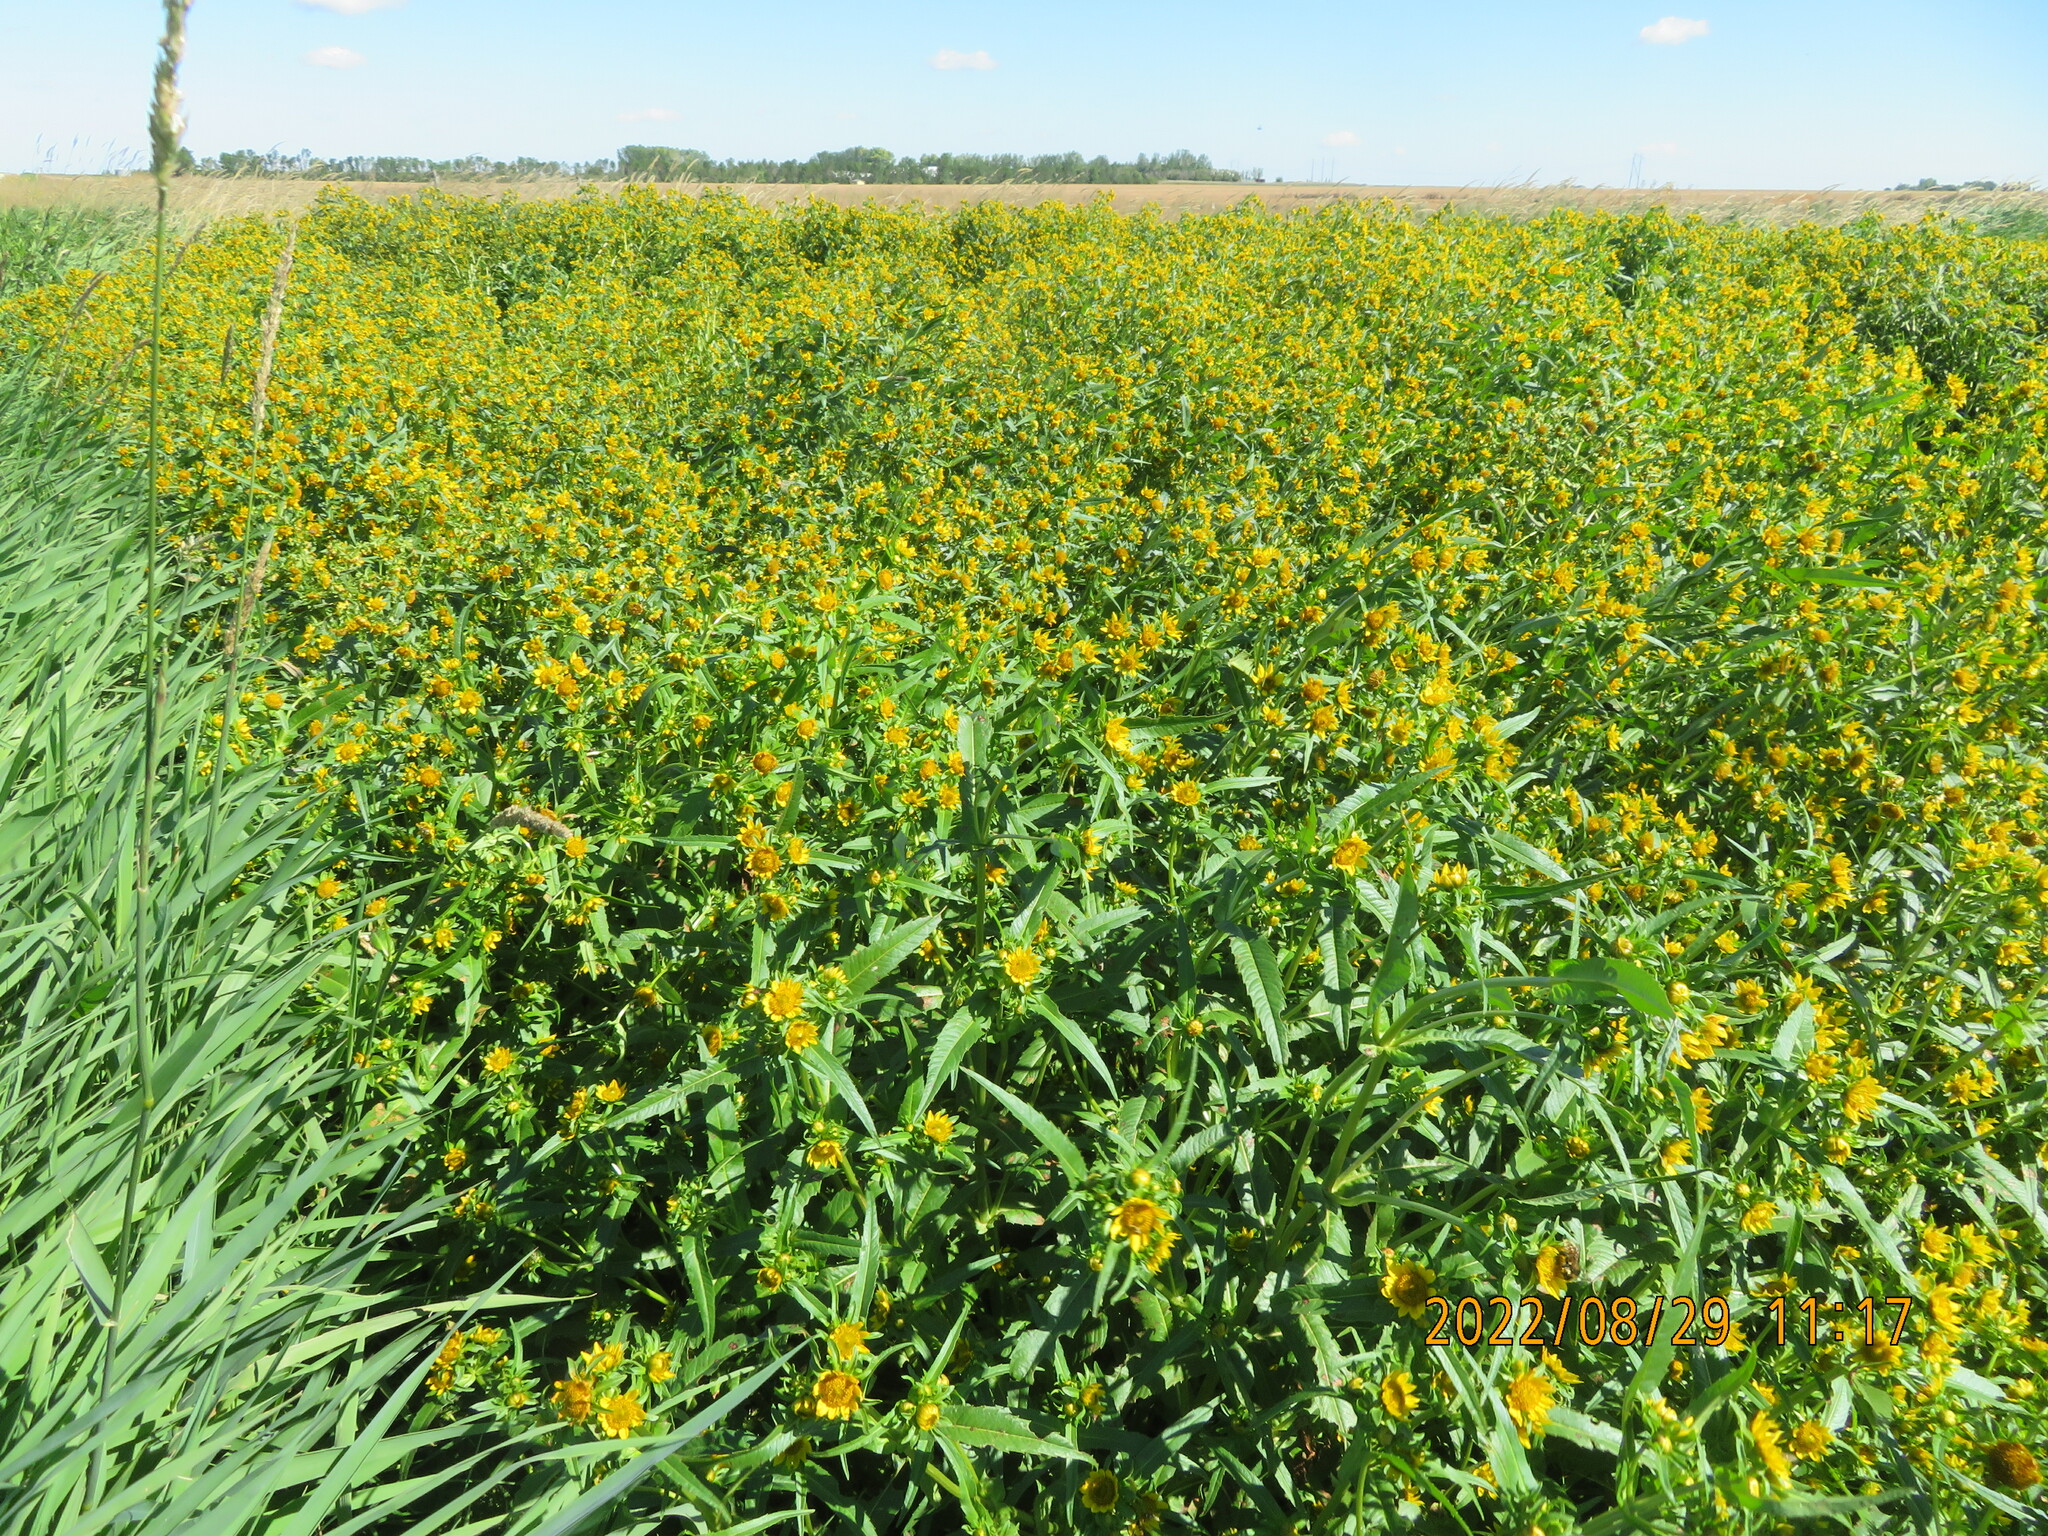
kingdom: Plantae
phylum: Tracheophyta
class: Magnoliopsida
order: Asterales
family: Asteraceae
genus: Bidens
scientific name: Bidens cernua
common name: Nodding bur-marigold
